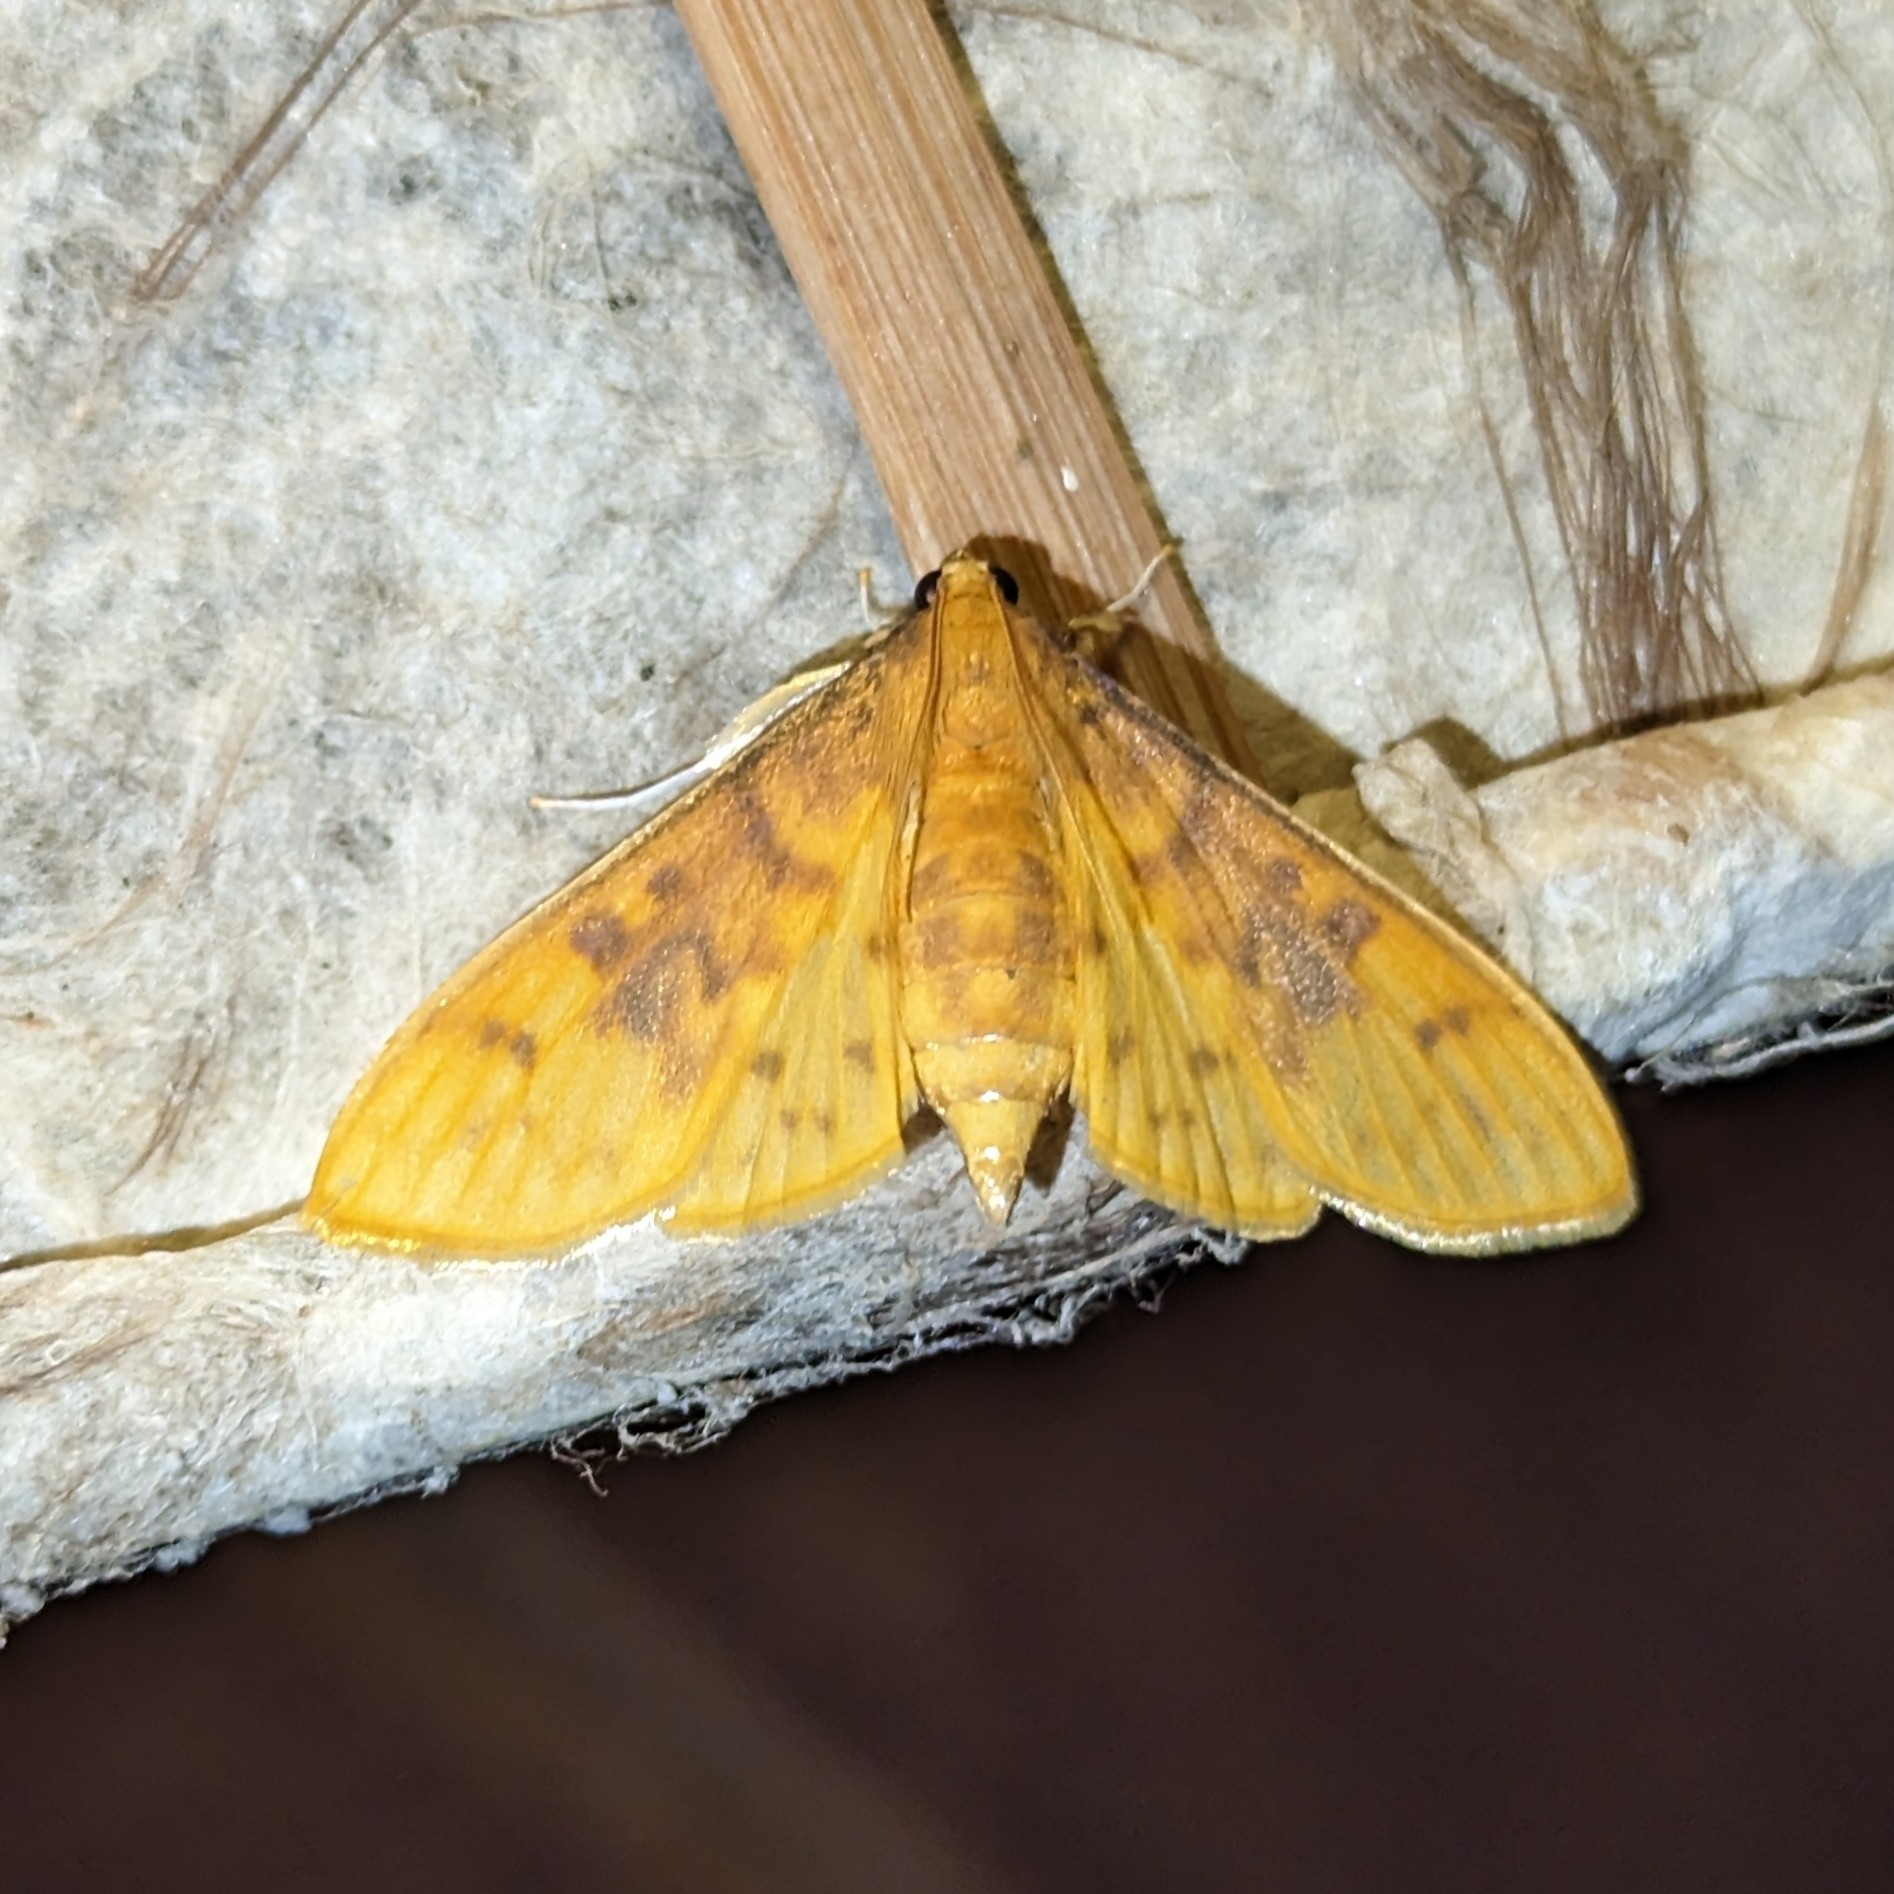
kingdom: Animalia
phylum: Arthropoda
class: Insecta
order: Lepidoptera
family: Crambidae
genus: Ghesquierellana
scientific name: Ghesquierellana hirtusalis
